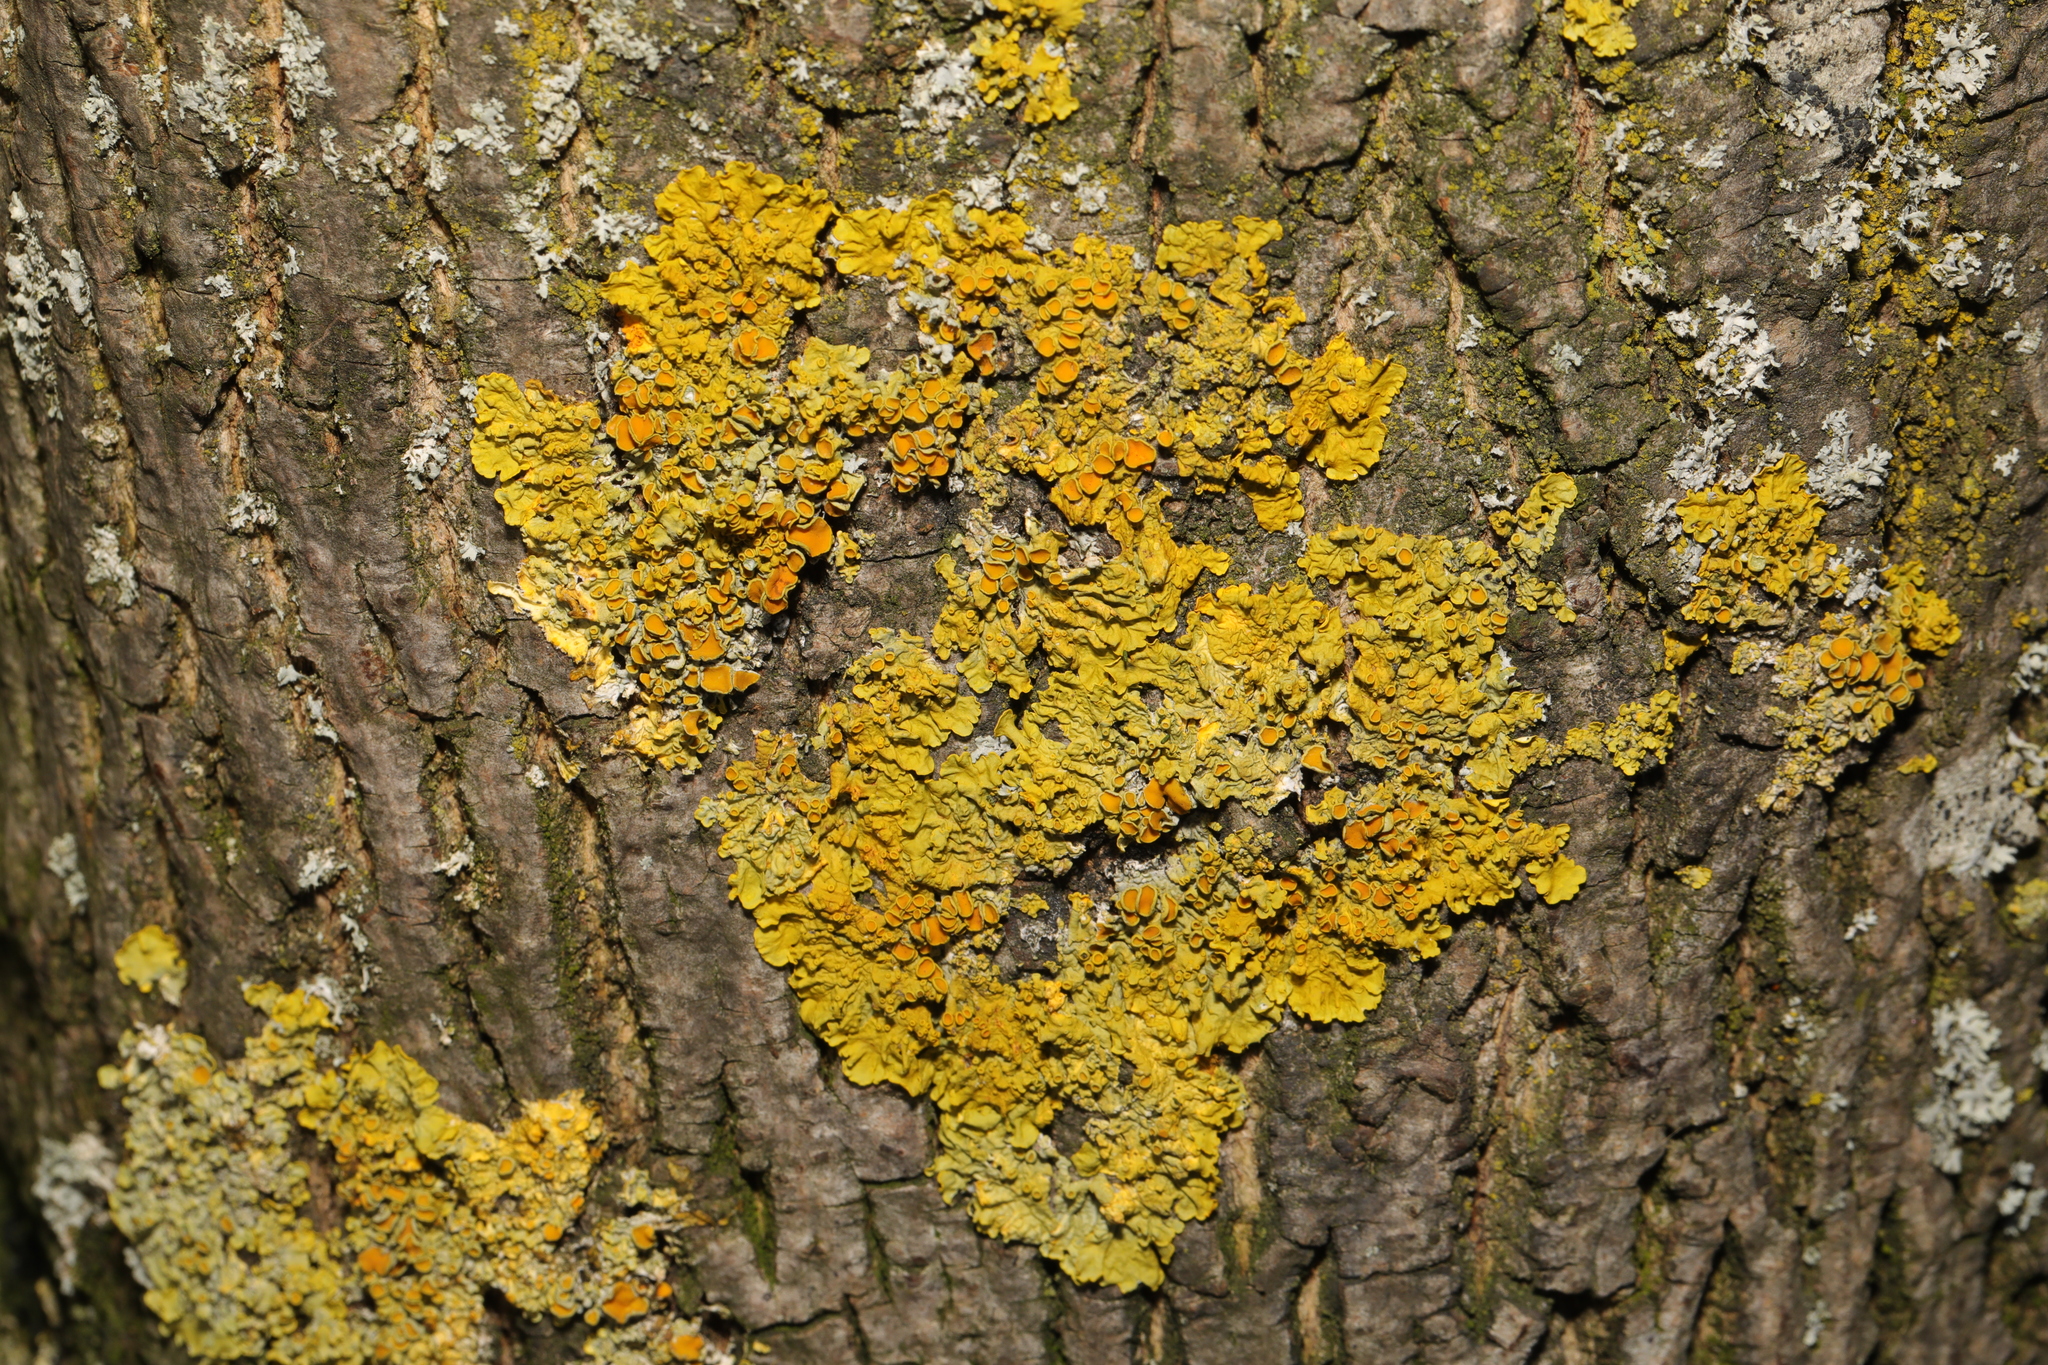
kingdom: Fungi
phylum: Ascomycota
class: Lecanoromycetes
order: Teloschistales
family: Teloschistaceae
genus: Xanthoria
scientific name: Xanthoria parietina
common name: Common orange lichen
